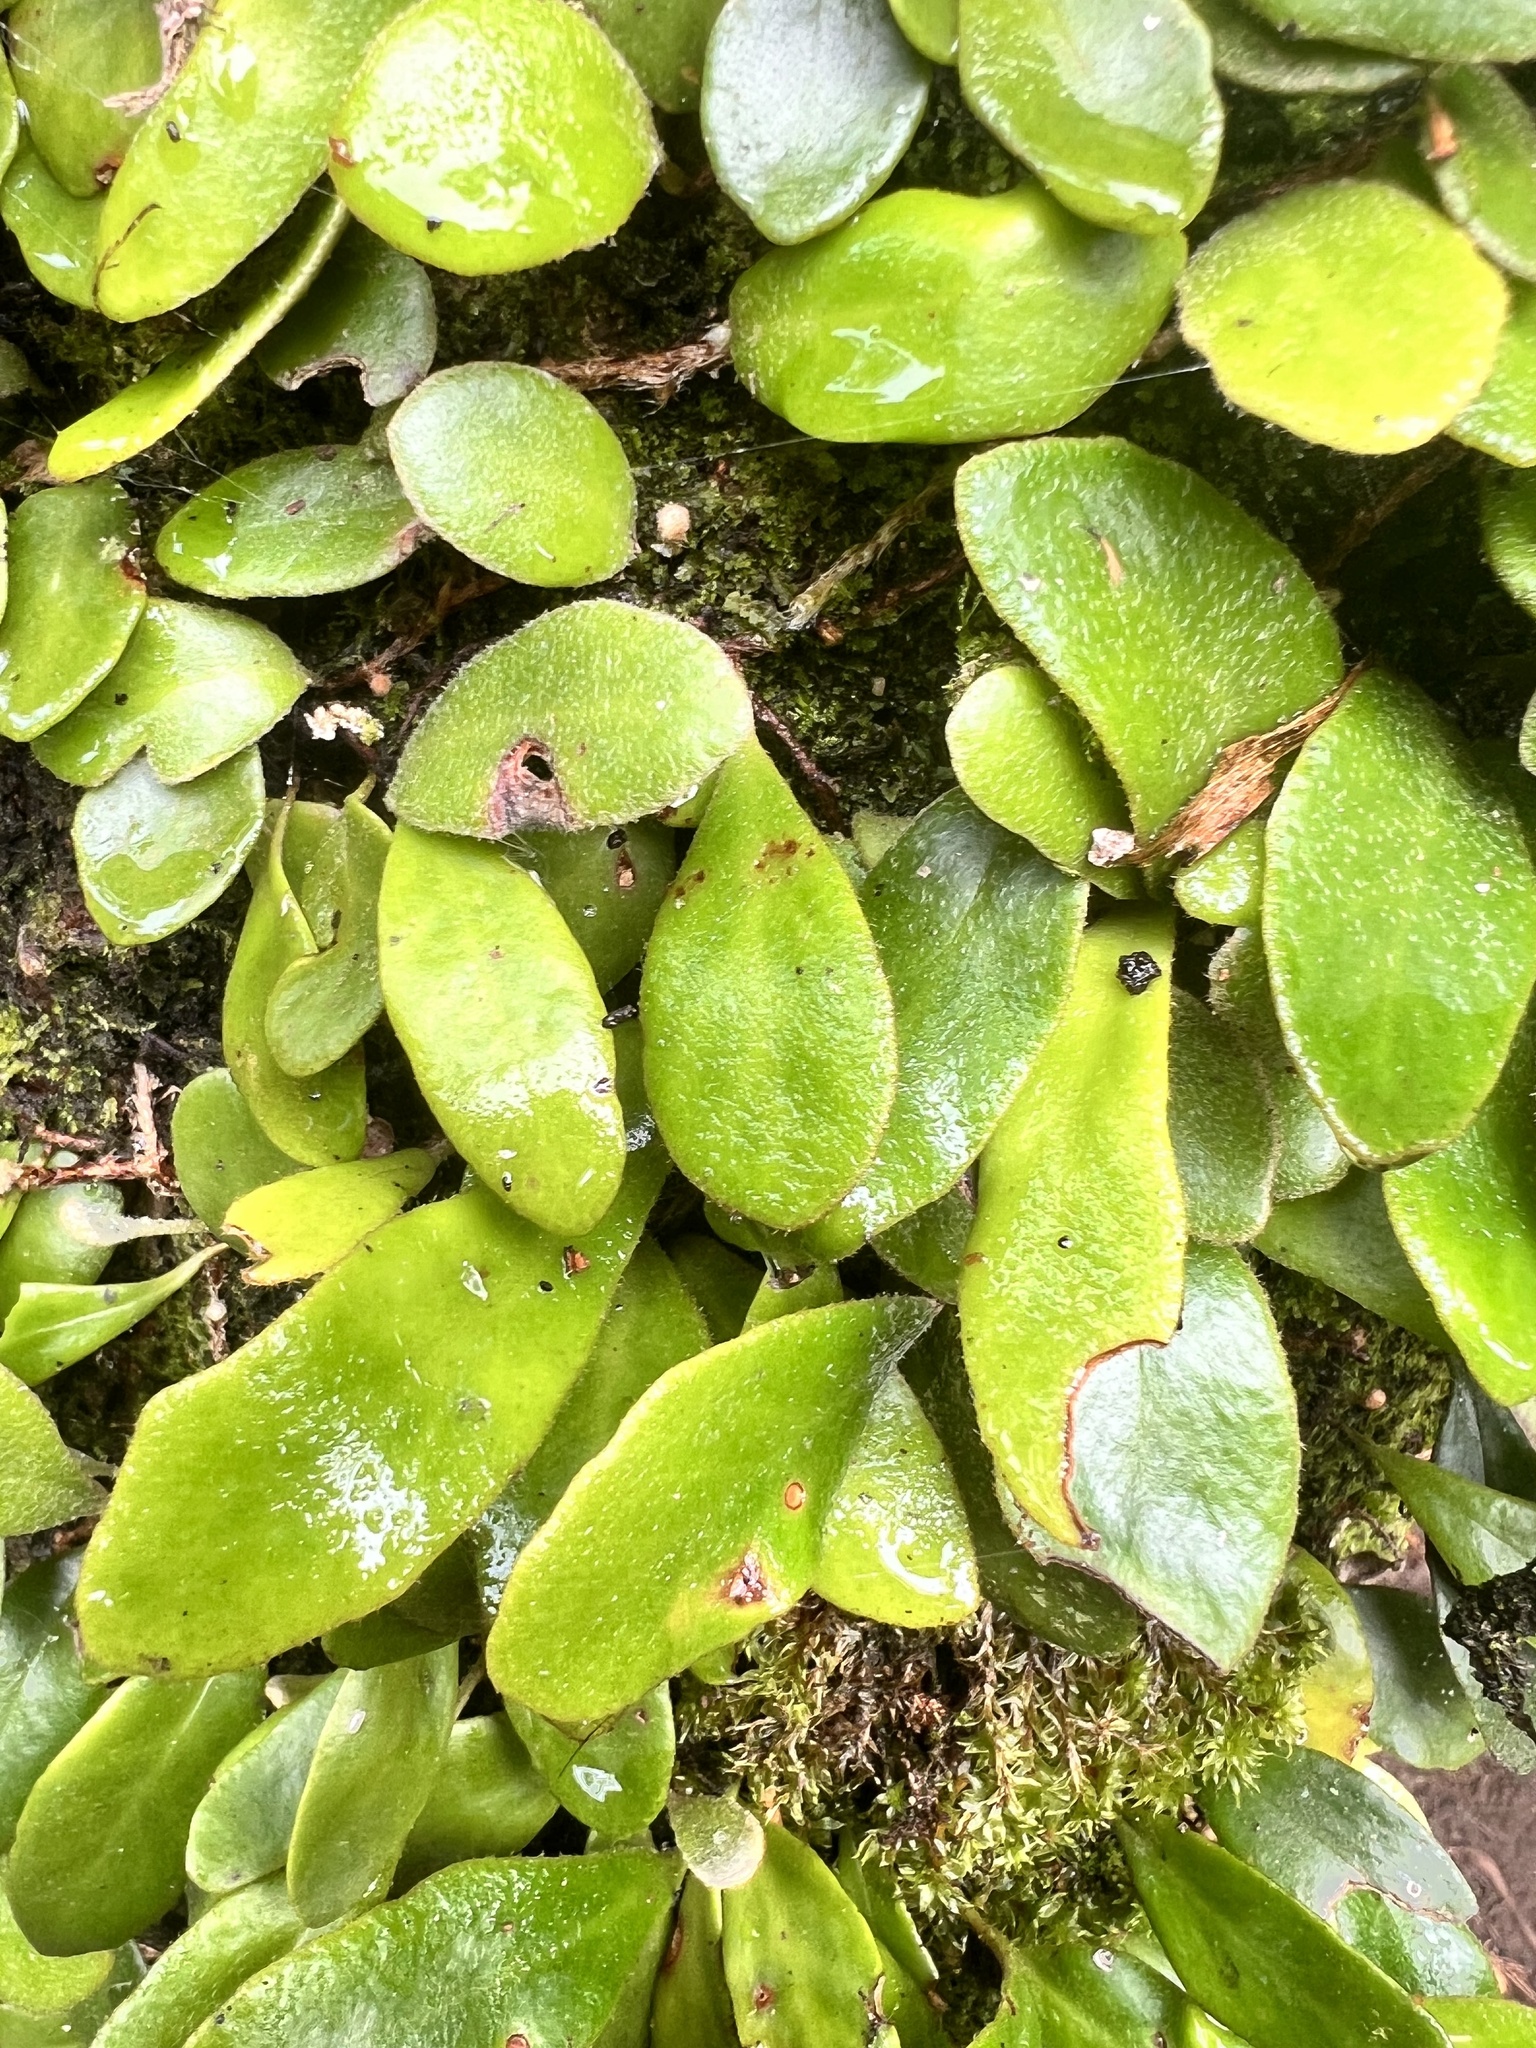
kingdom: Plantae
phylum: Tracheophyta
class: Polypodiopsida
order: Polypodiales
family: Polypodiaceae
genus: Pyrrosia
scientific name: Pyrrosia eleagnifolia
